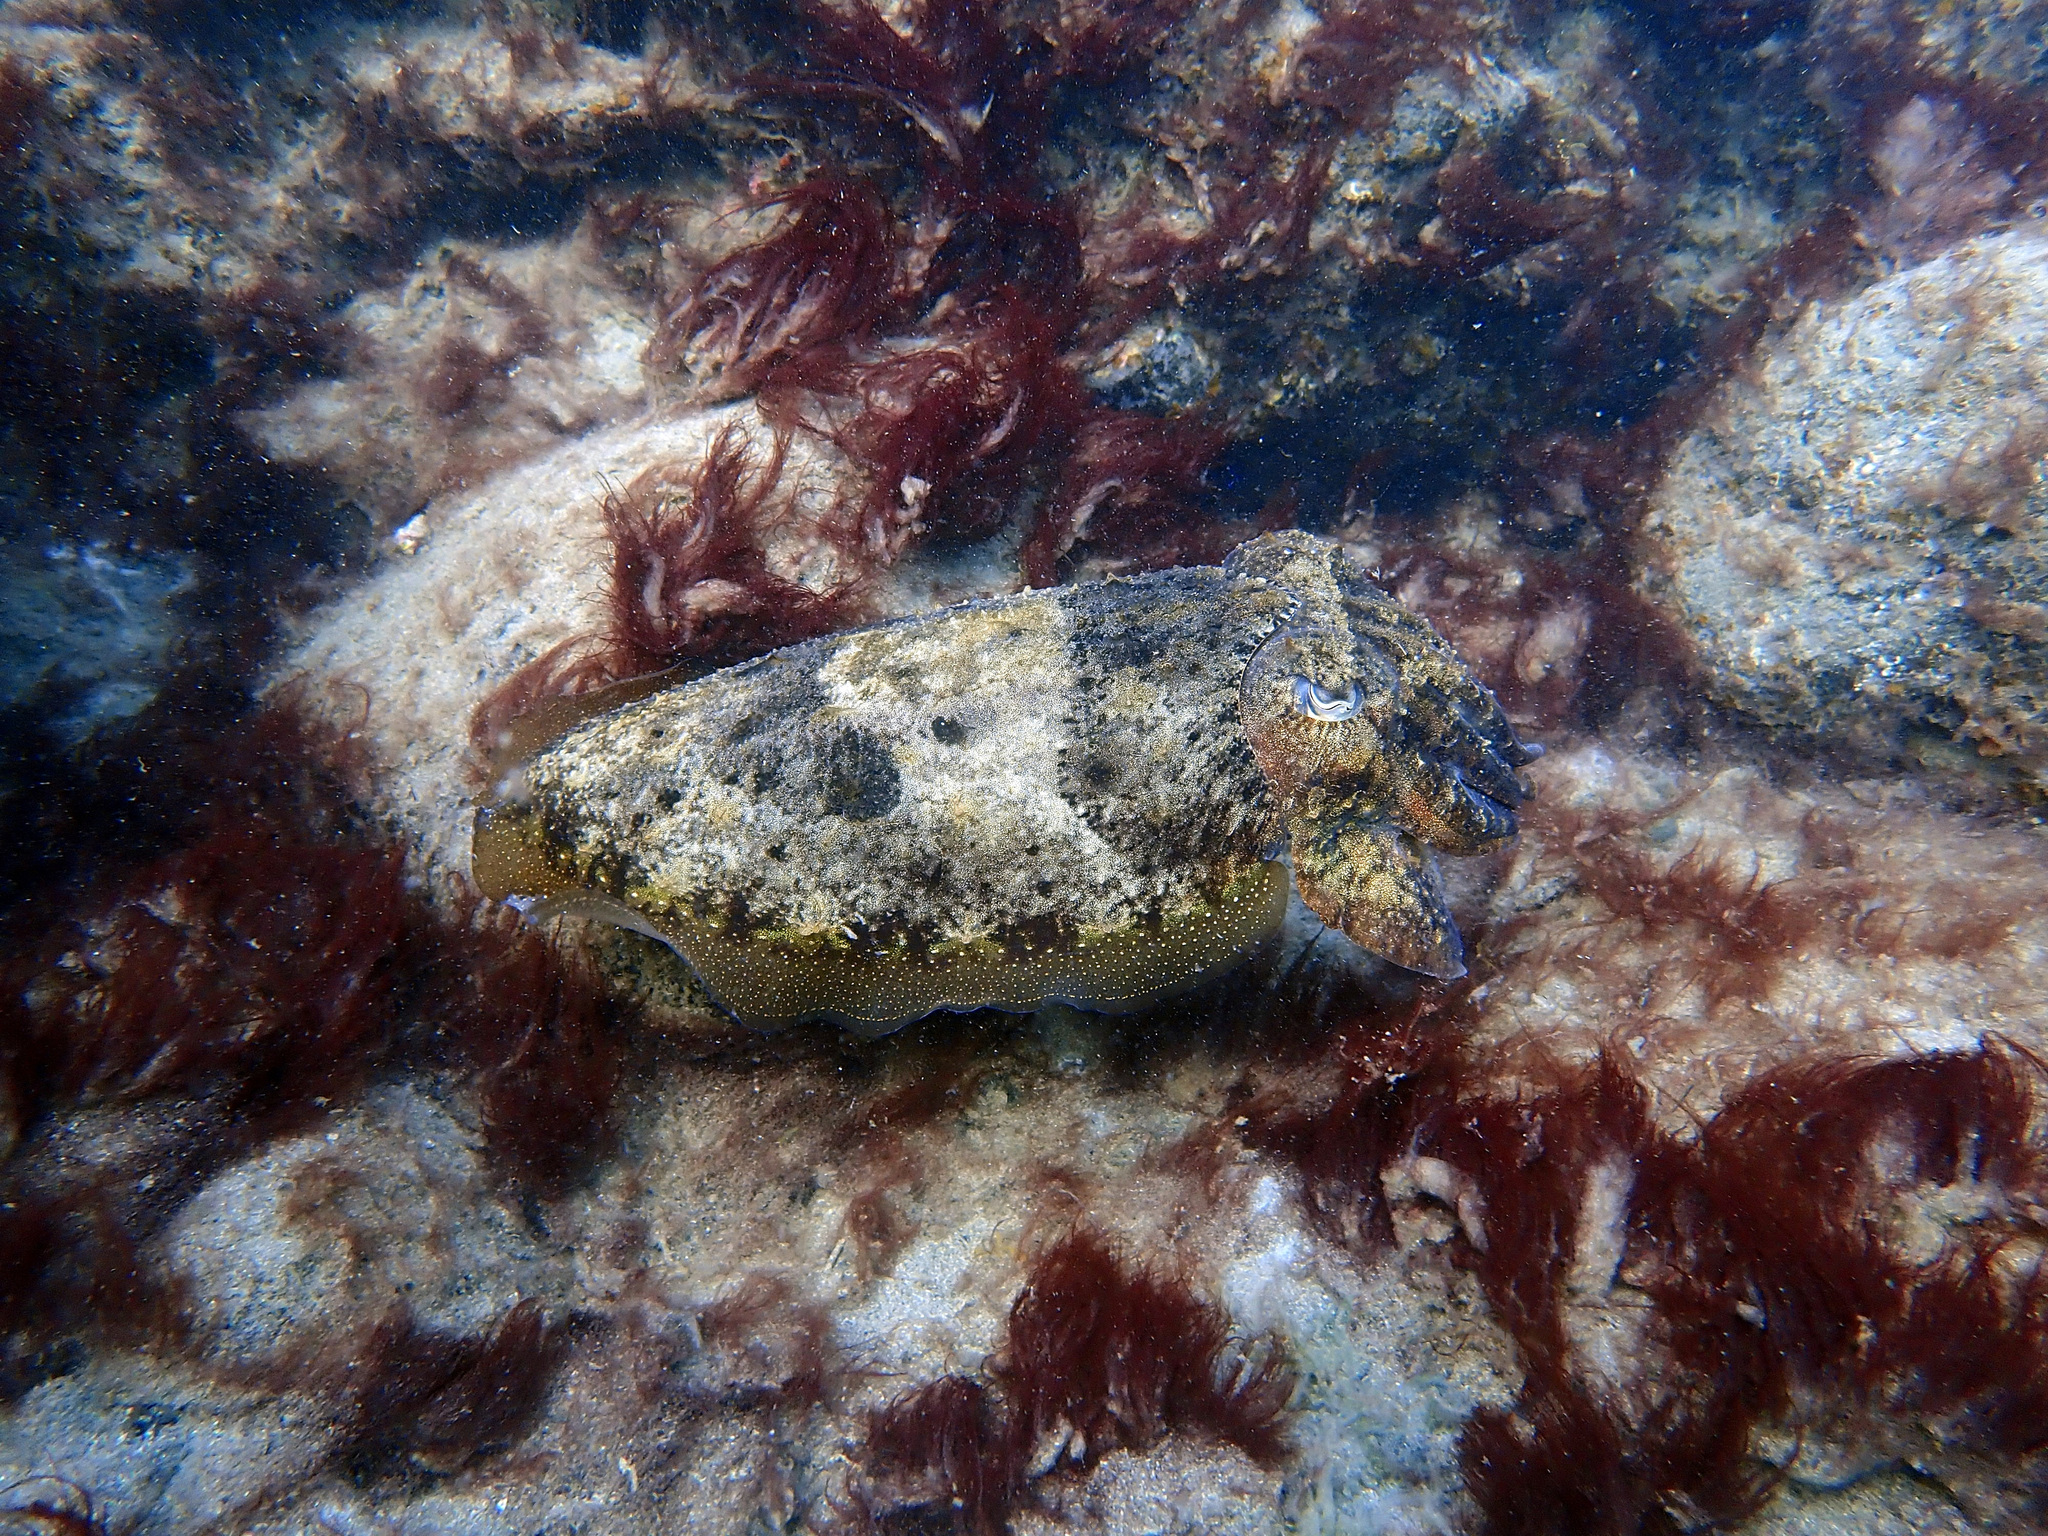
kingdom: Animalia
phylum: Mollusca
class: Cephalopoda
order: Sepiida
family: Sepiidae
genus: Sepia
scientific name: Sepia officinalis
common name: Common cuttlefish
